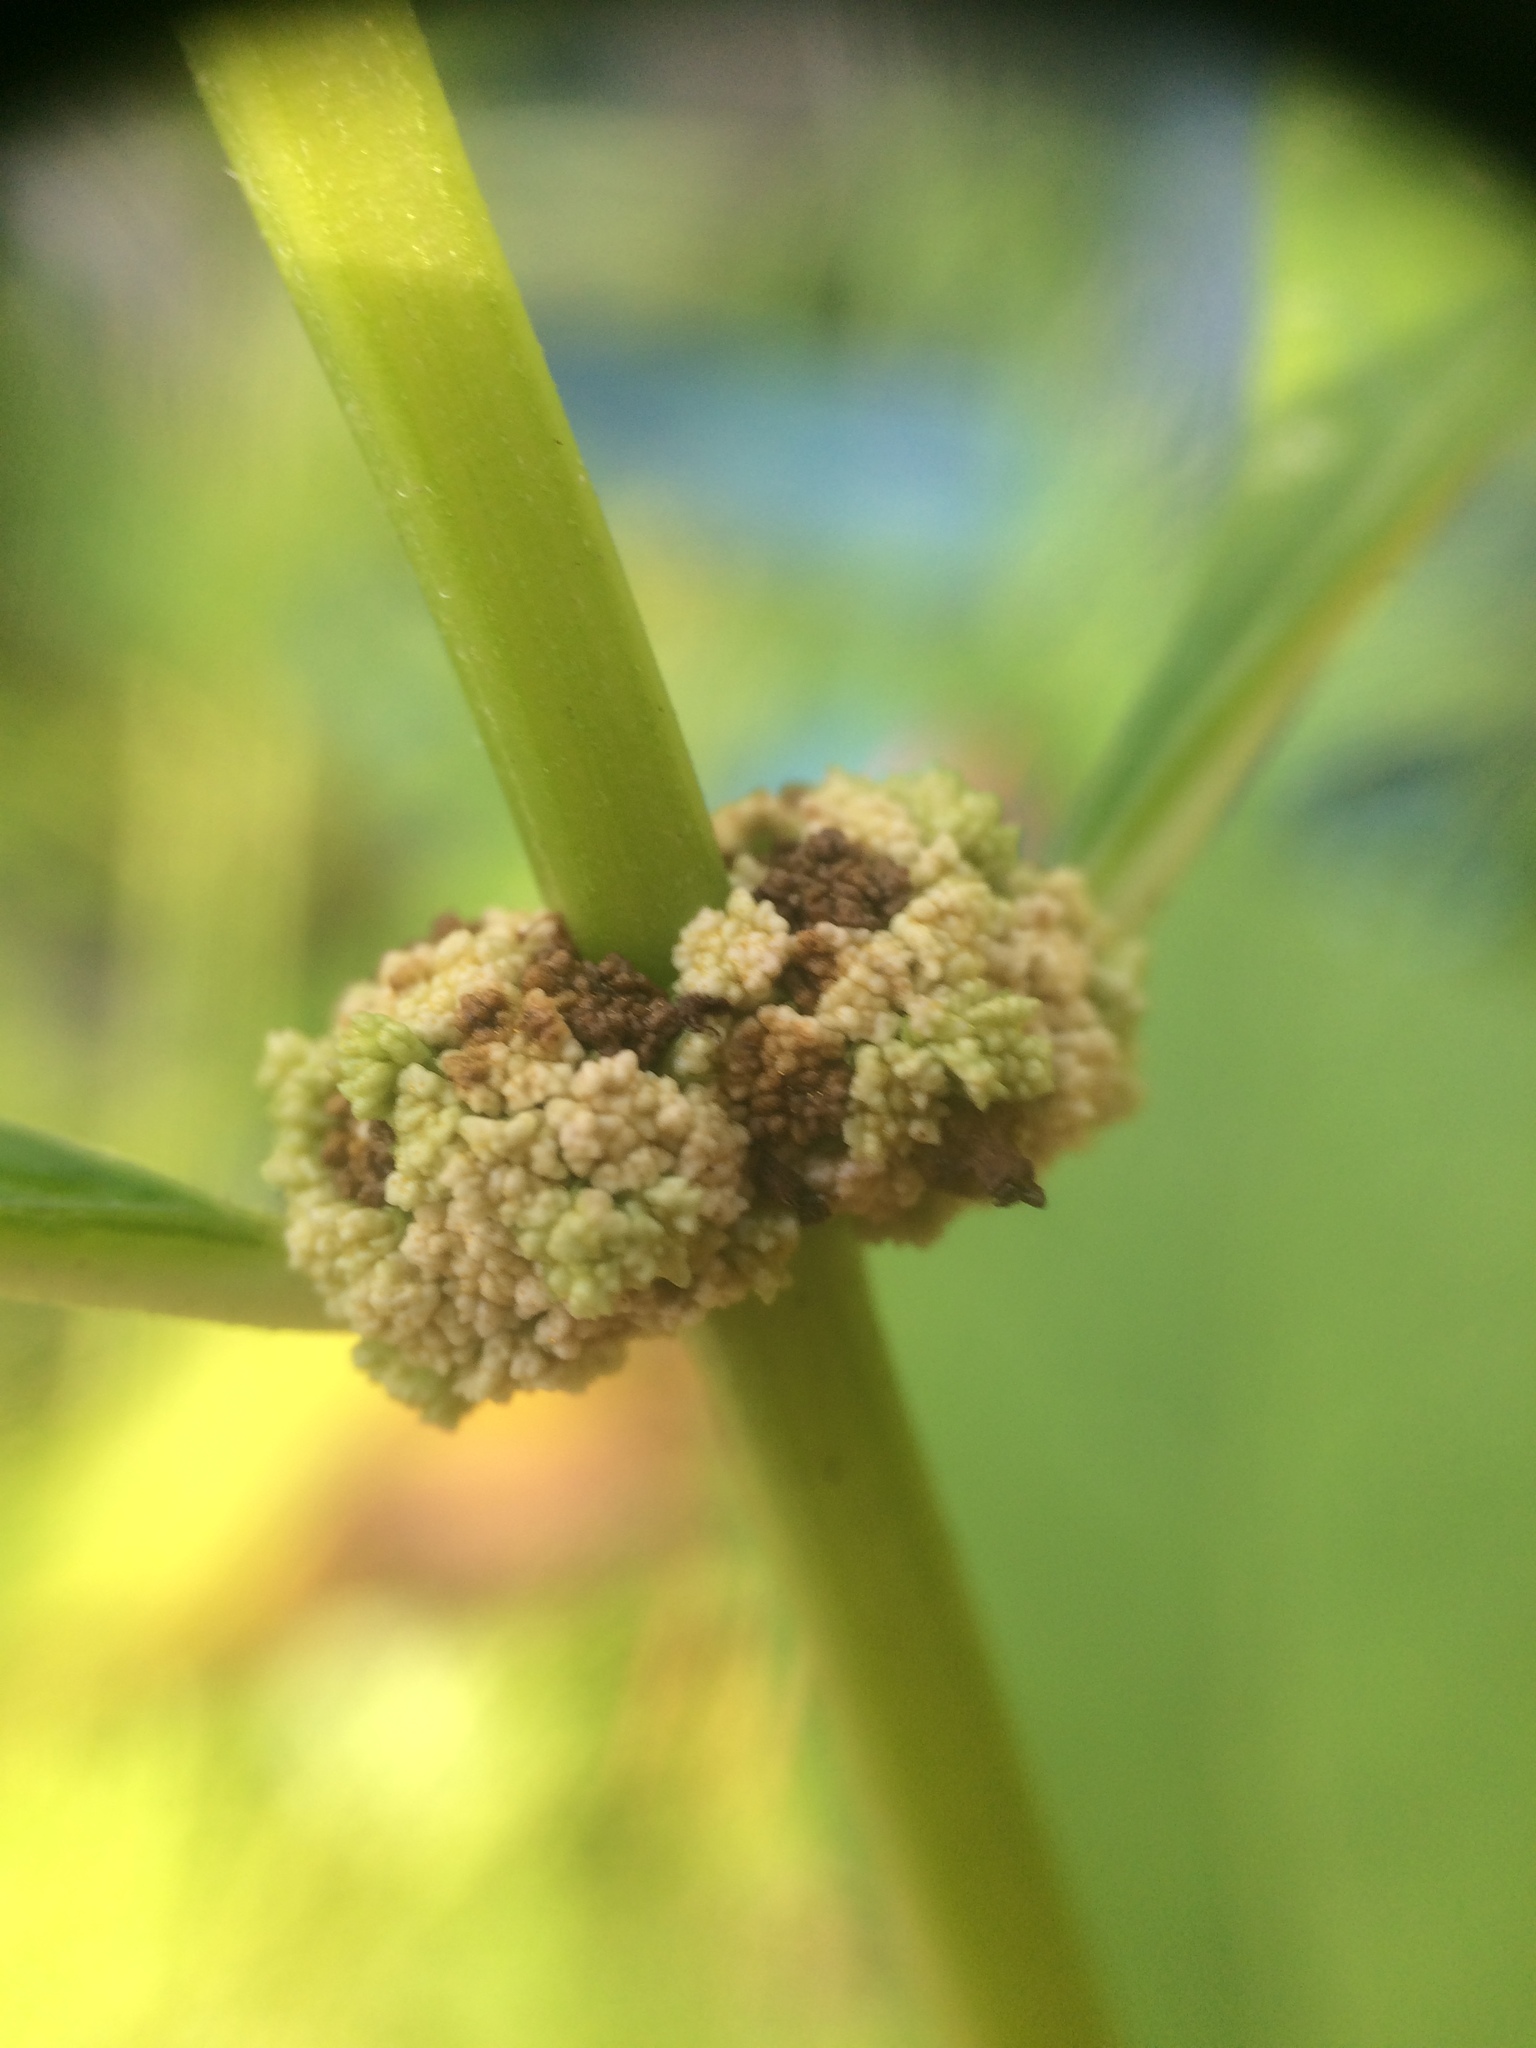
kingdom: Plantae
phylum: Tracheophyta
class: Magnoliopsida
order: Lamiales
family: Lamiaceae
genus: Lycopus
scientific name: Lycopus virginicus
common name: Bugleweed
